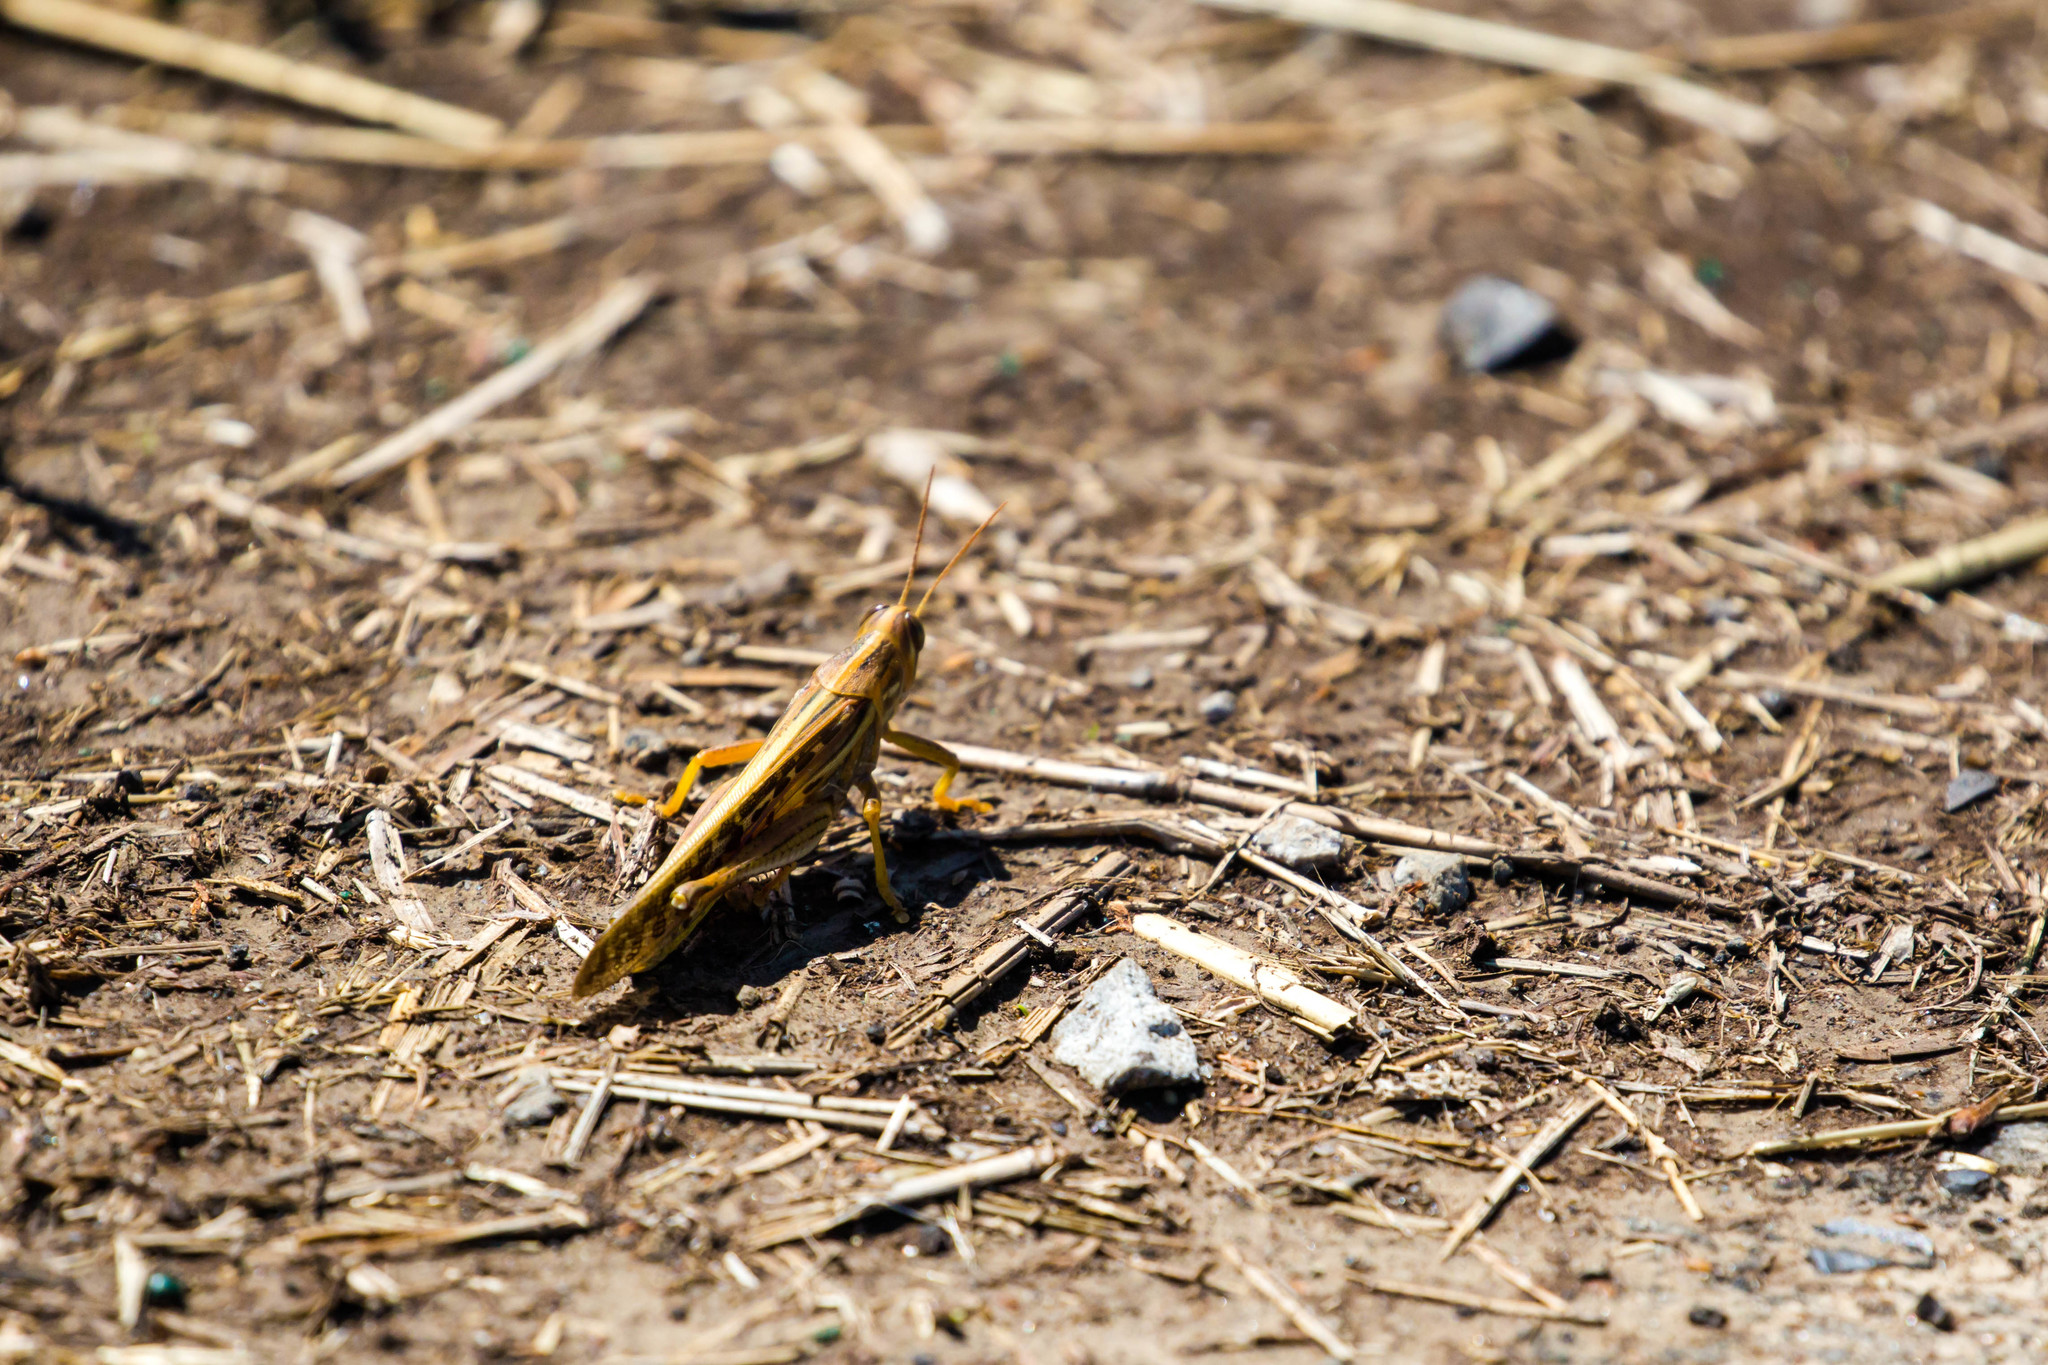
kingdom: Animalia
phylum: Arthropoda
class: Insecta
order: Orthoptera
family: Acrididae
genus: Schistocerca
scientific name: Schistocerca americana
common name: American bird locust
